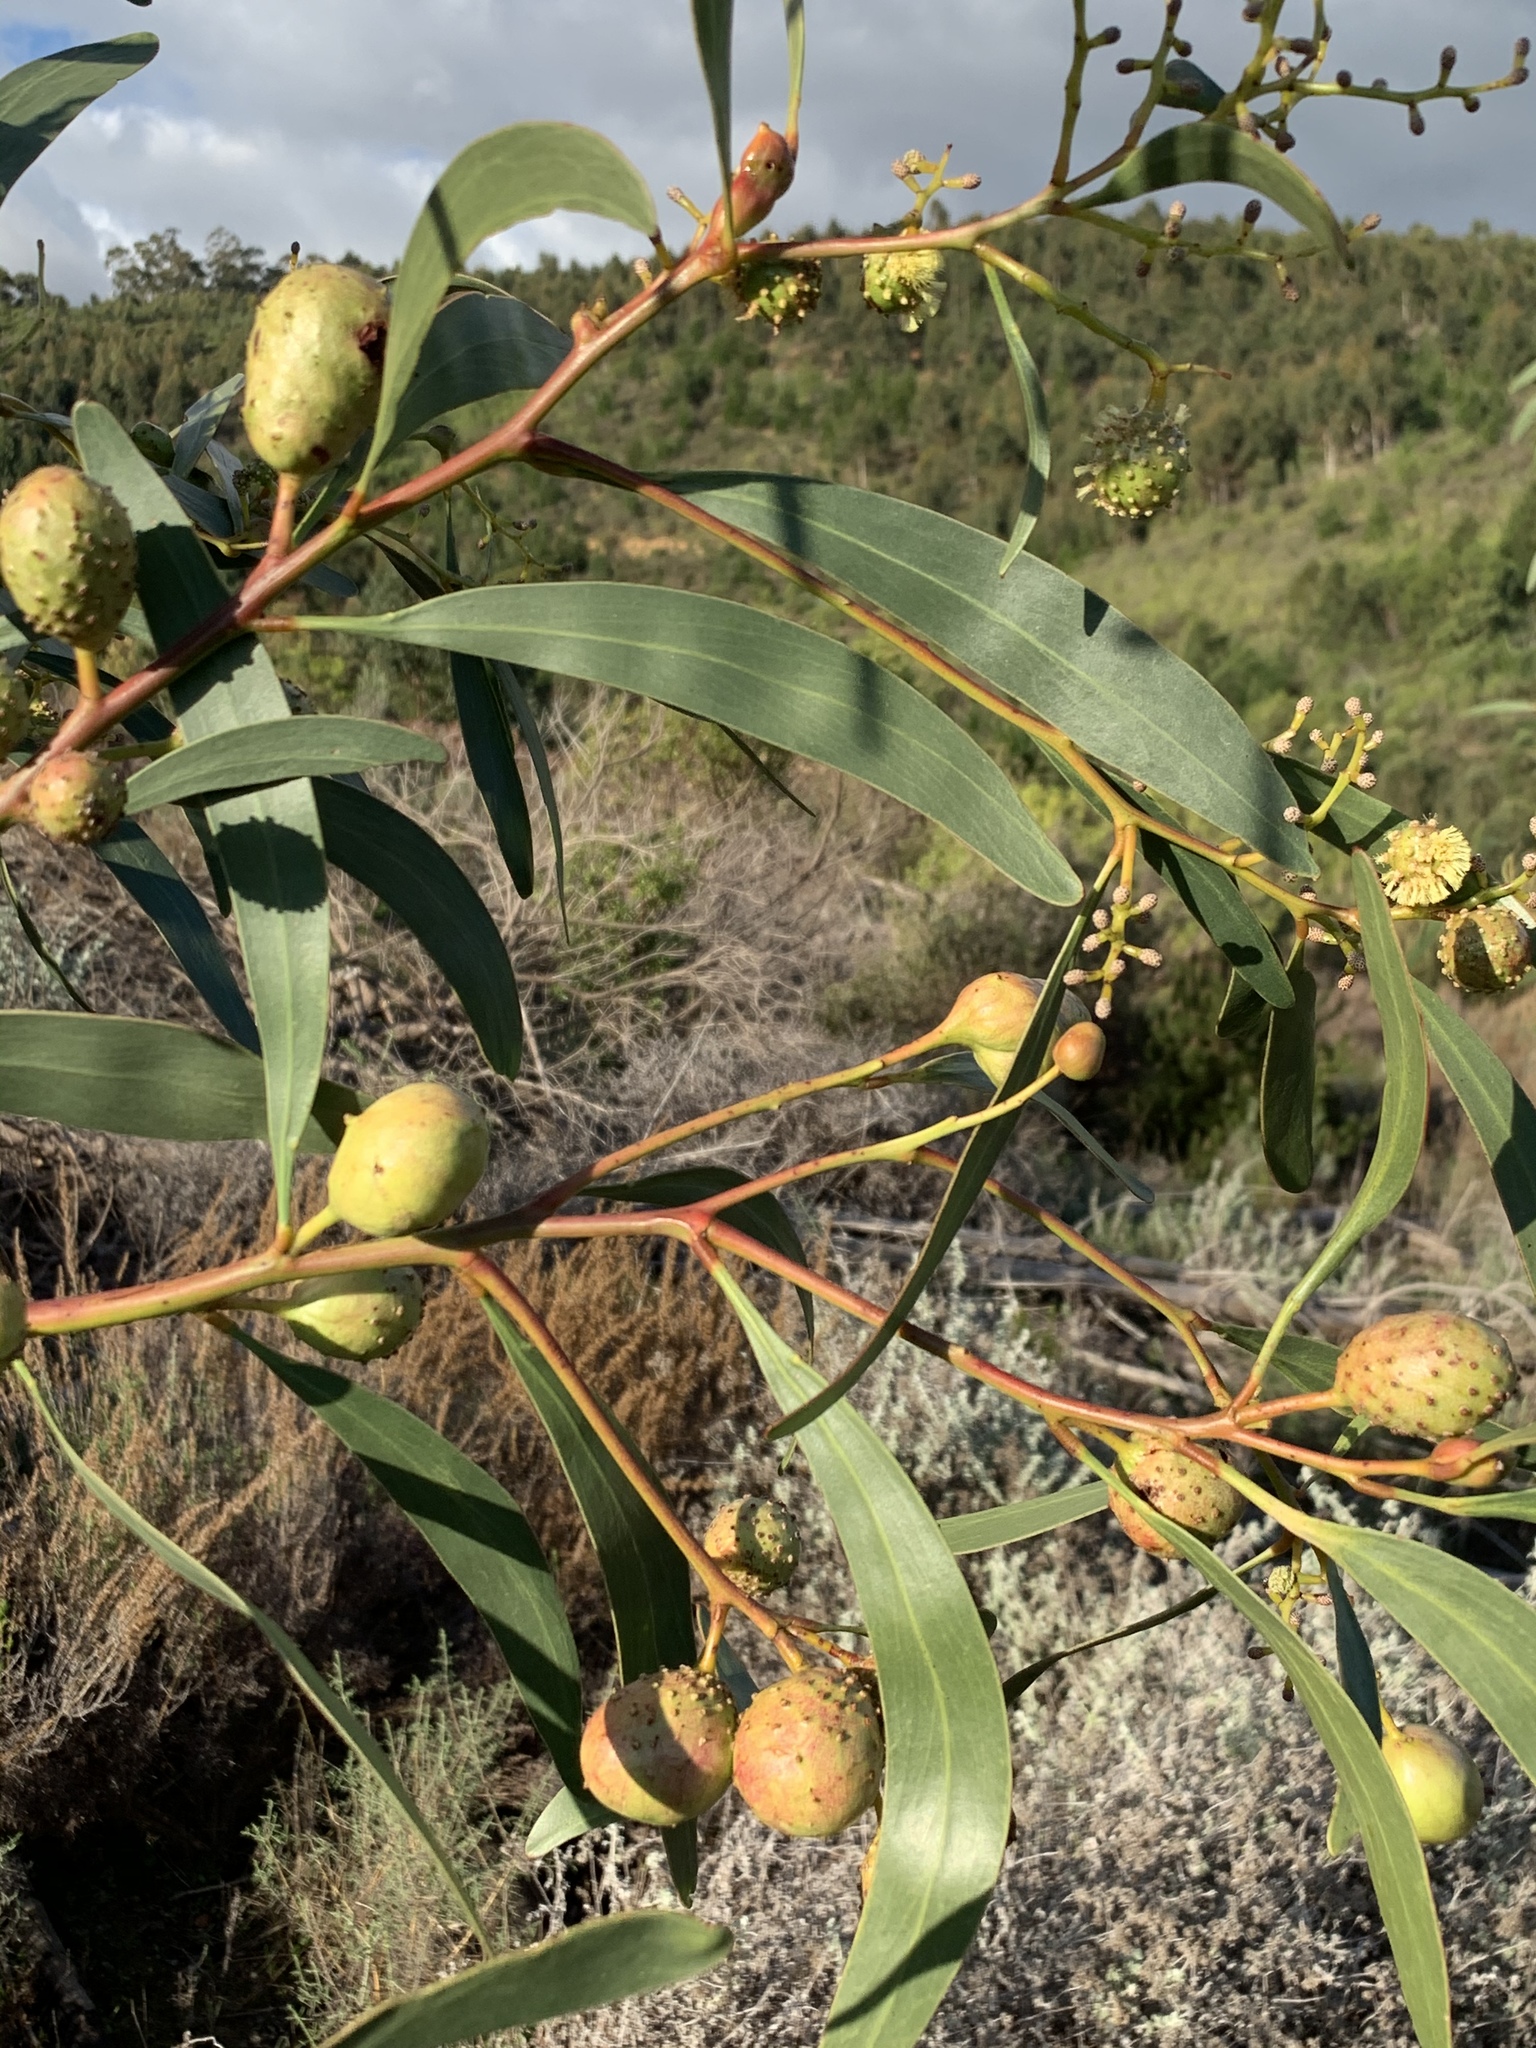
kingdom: Plantae
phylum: Tracheophyta
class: Magnoliopsida
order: Fabales
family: Fabaceae
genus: Acacia
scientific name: Acacia pycnantha
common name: Golden wattle
